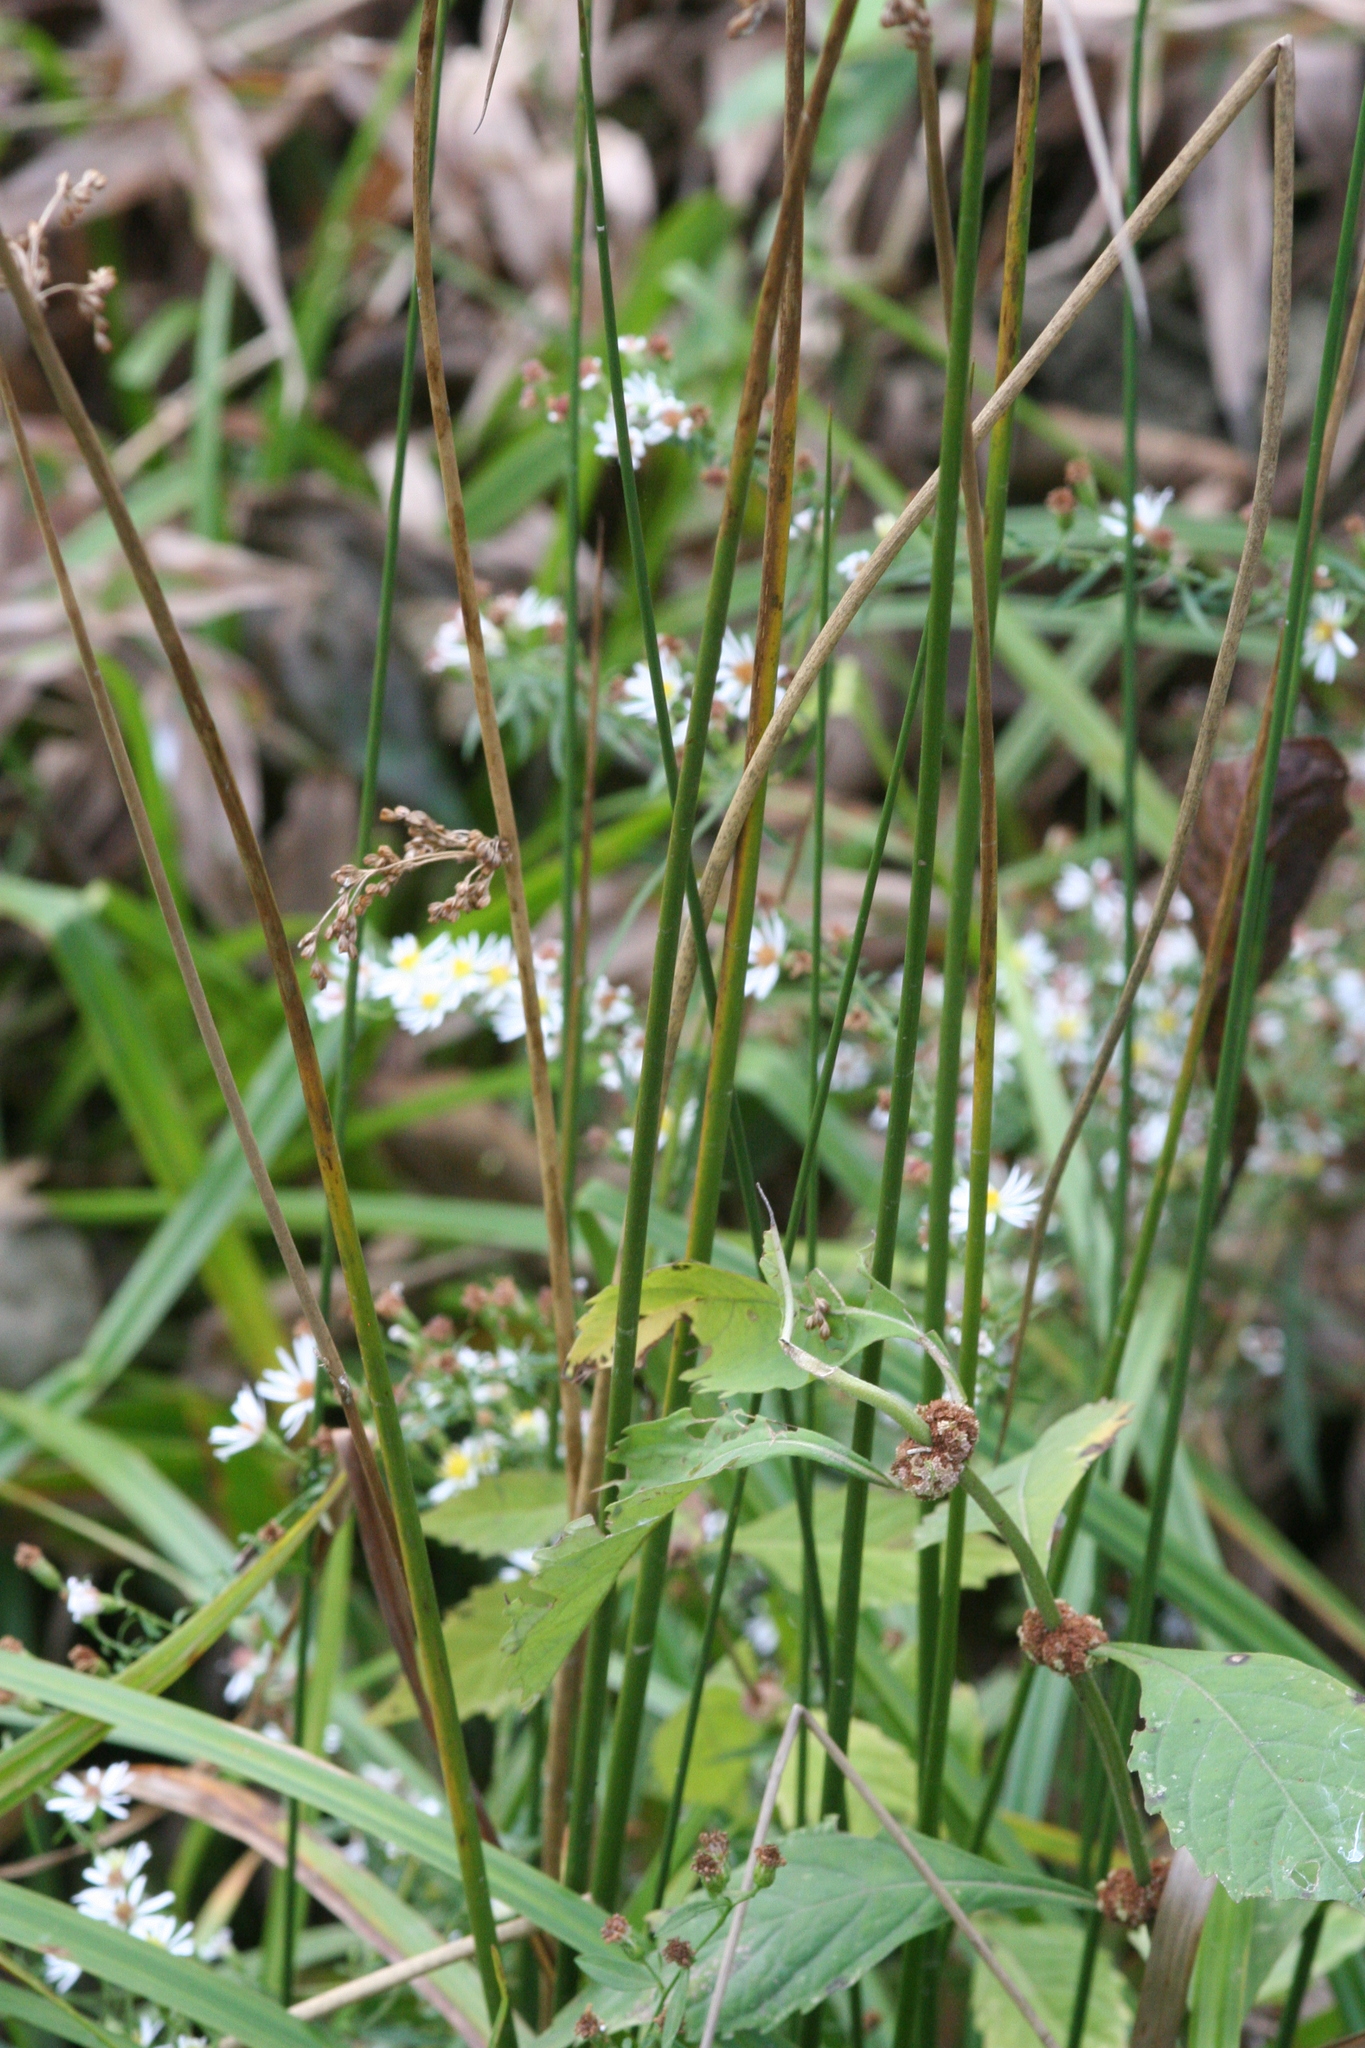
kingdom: Plantae
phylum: Tracheophyta
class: Liliopsida
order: Poales
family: Juncaceae
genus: Juncus
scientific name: Juncus effusus
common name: Soft rush
